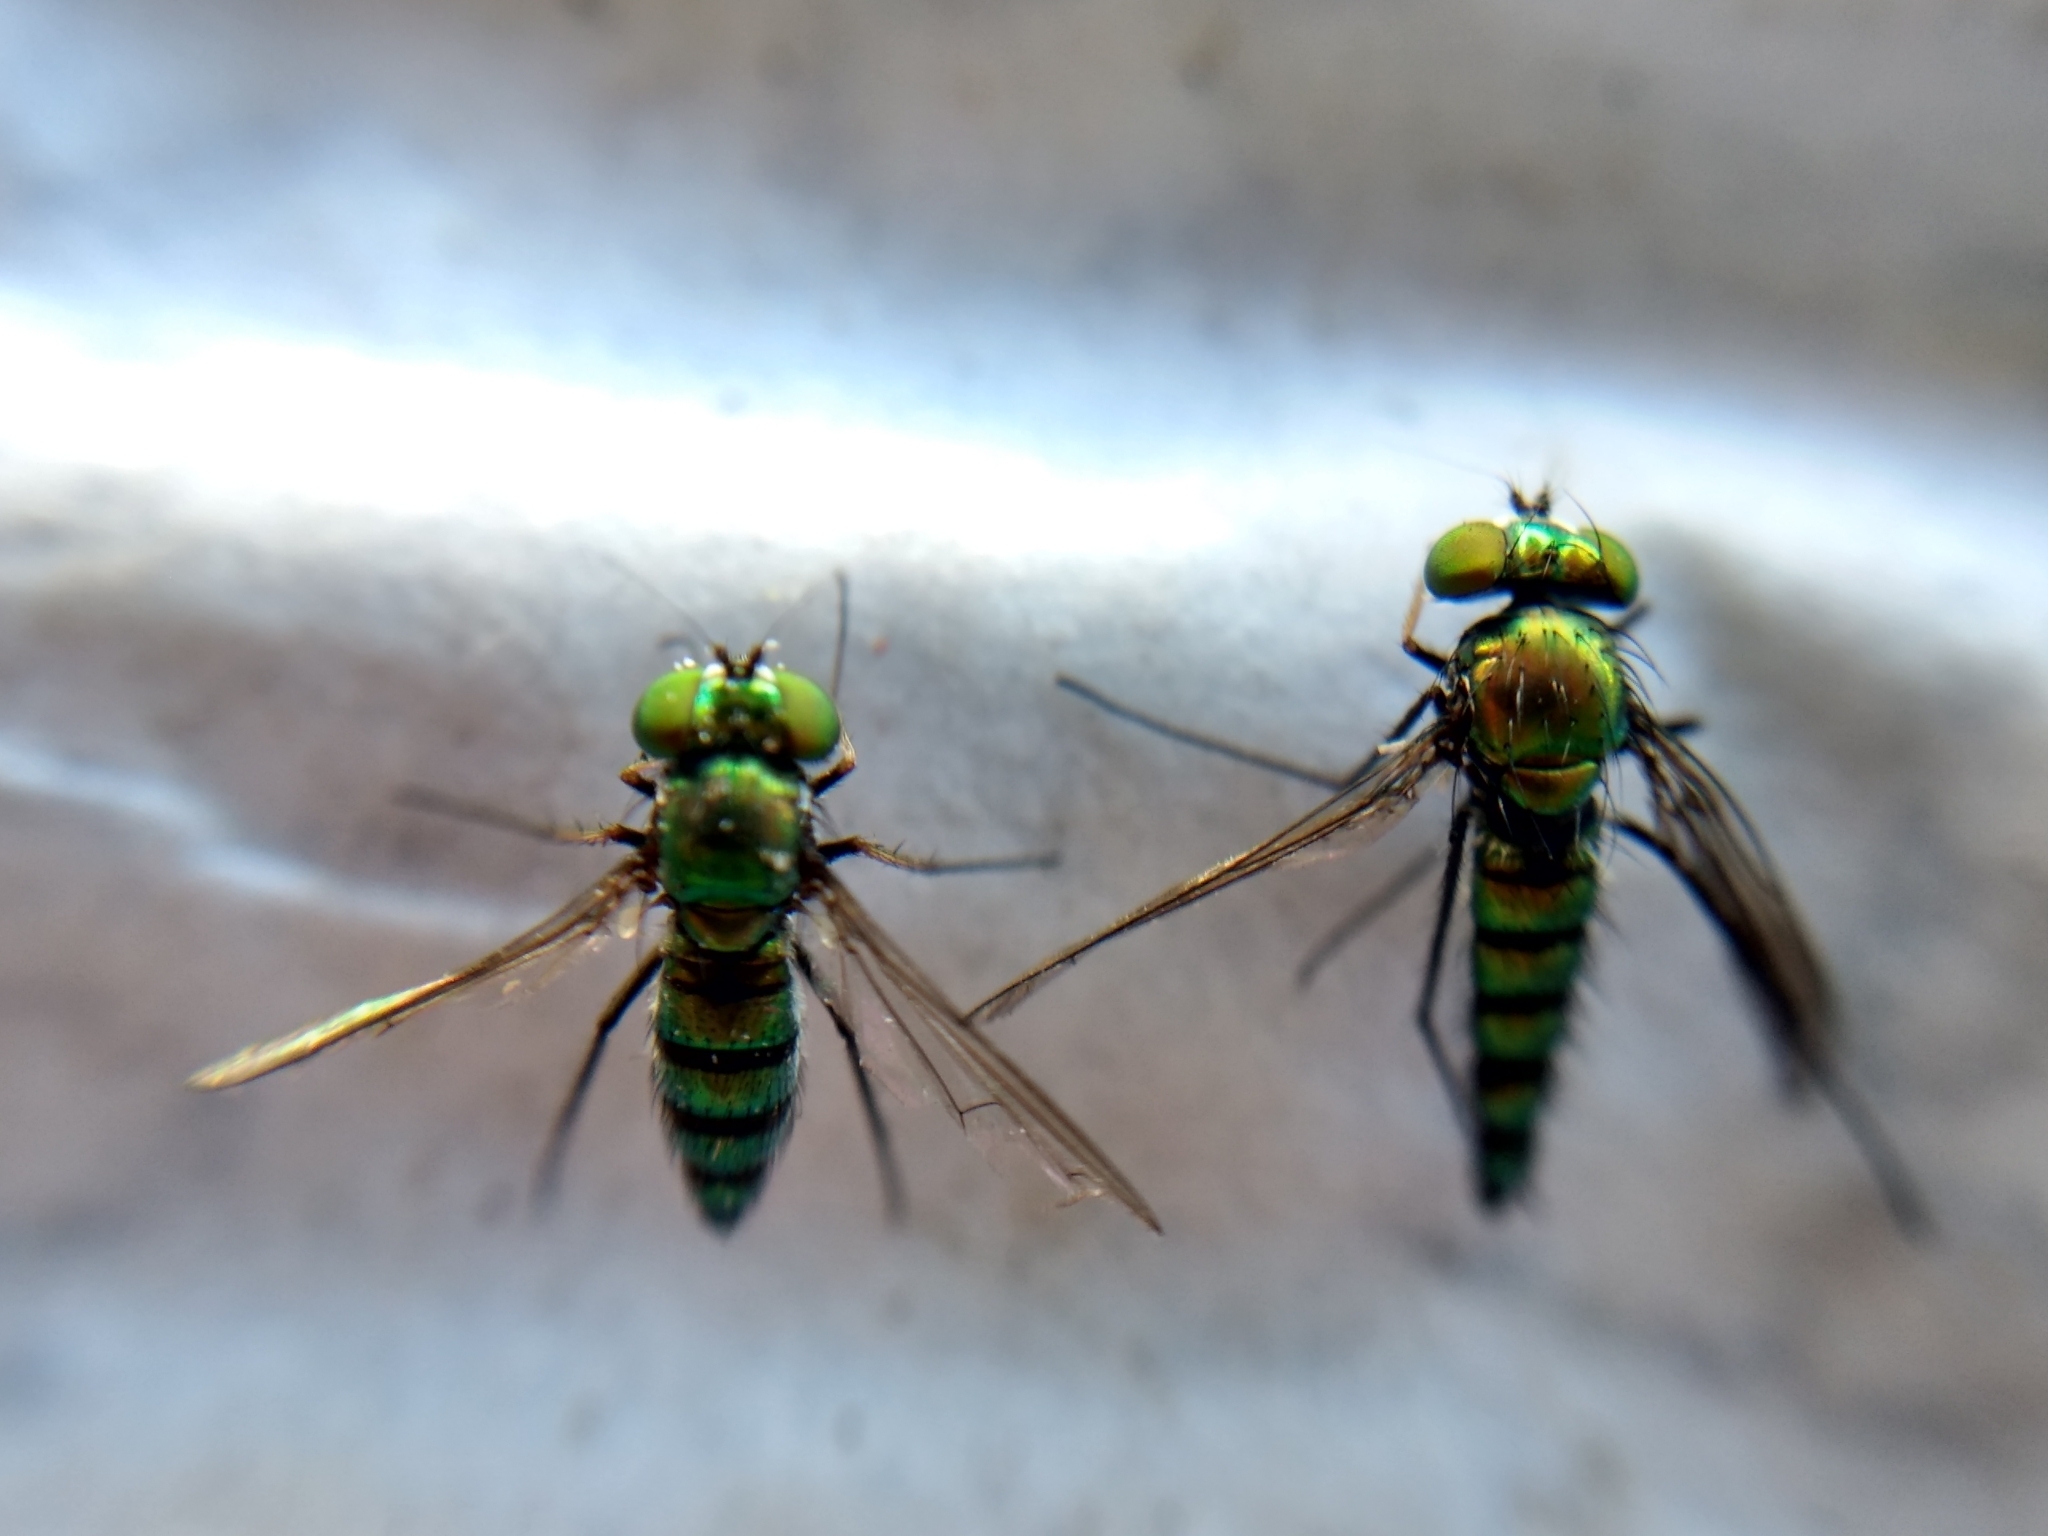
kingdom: Animalia
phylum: Arthropoda
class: Insecta
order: Diptera
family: Dolichopodidae
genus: Condylostylus
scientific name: Condylostylus longicornis
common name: Long-legged fly
